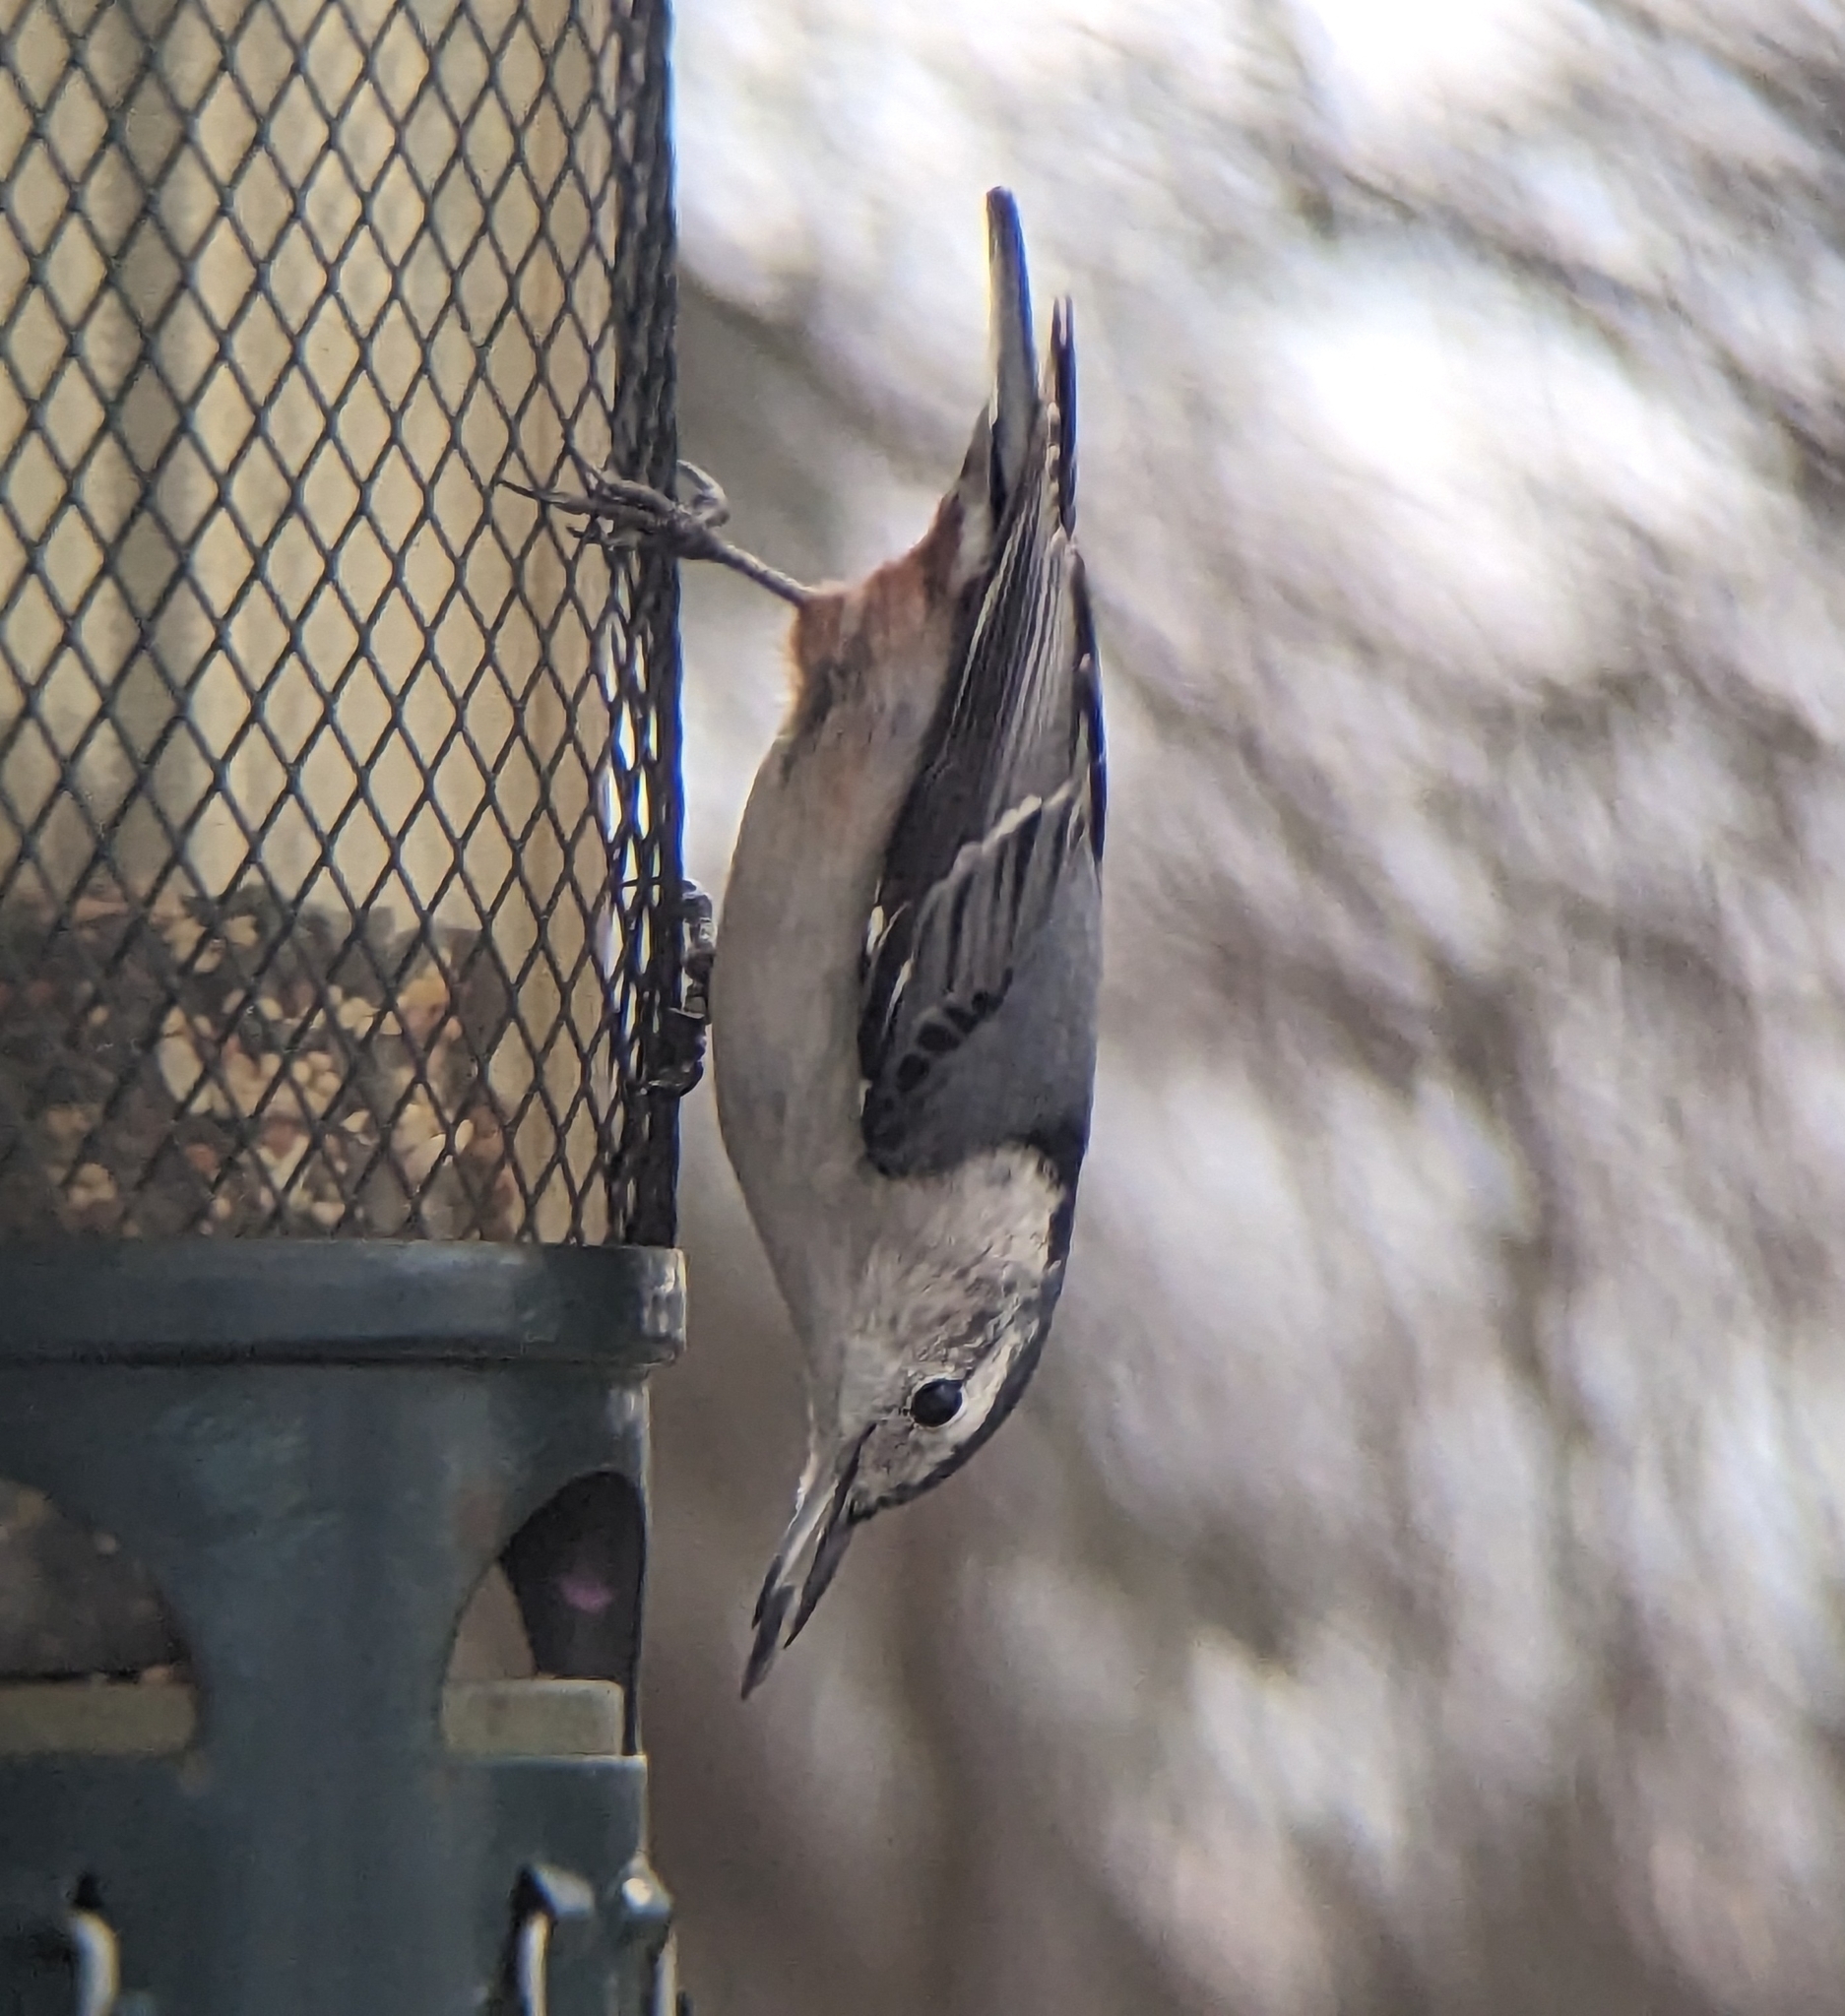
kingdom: Animalia
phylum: Chordata
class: Aves
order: Passeriformes
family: Sittidae
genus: Sitta
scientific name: Sitta carolinensis
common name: White-breasted nuthatch
